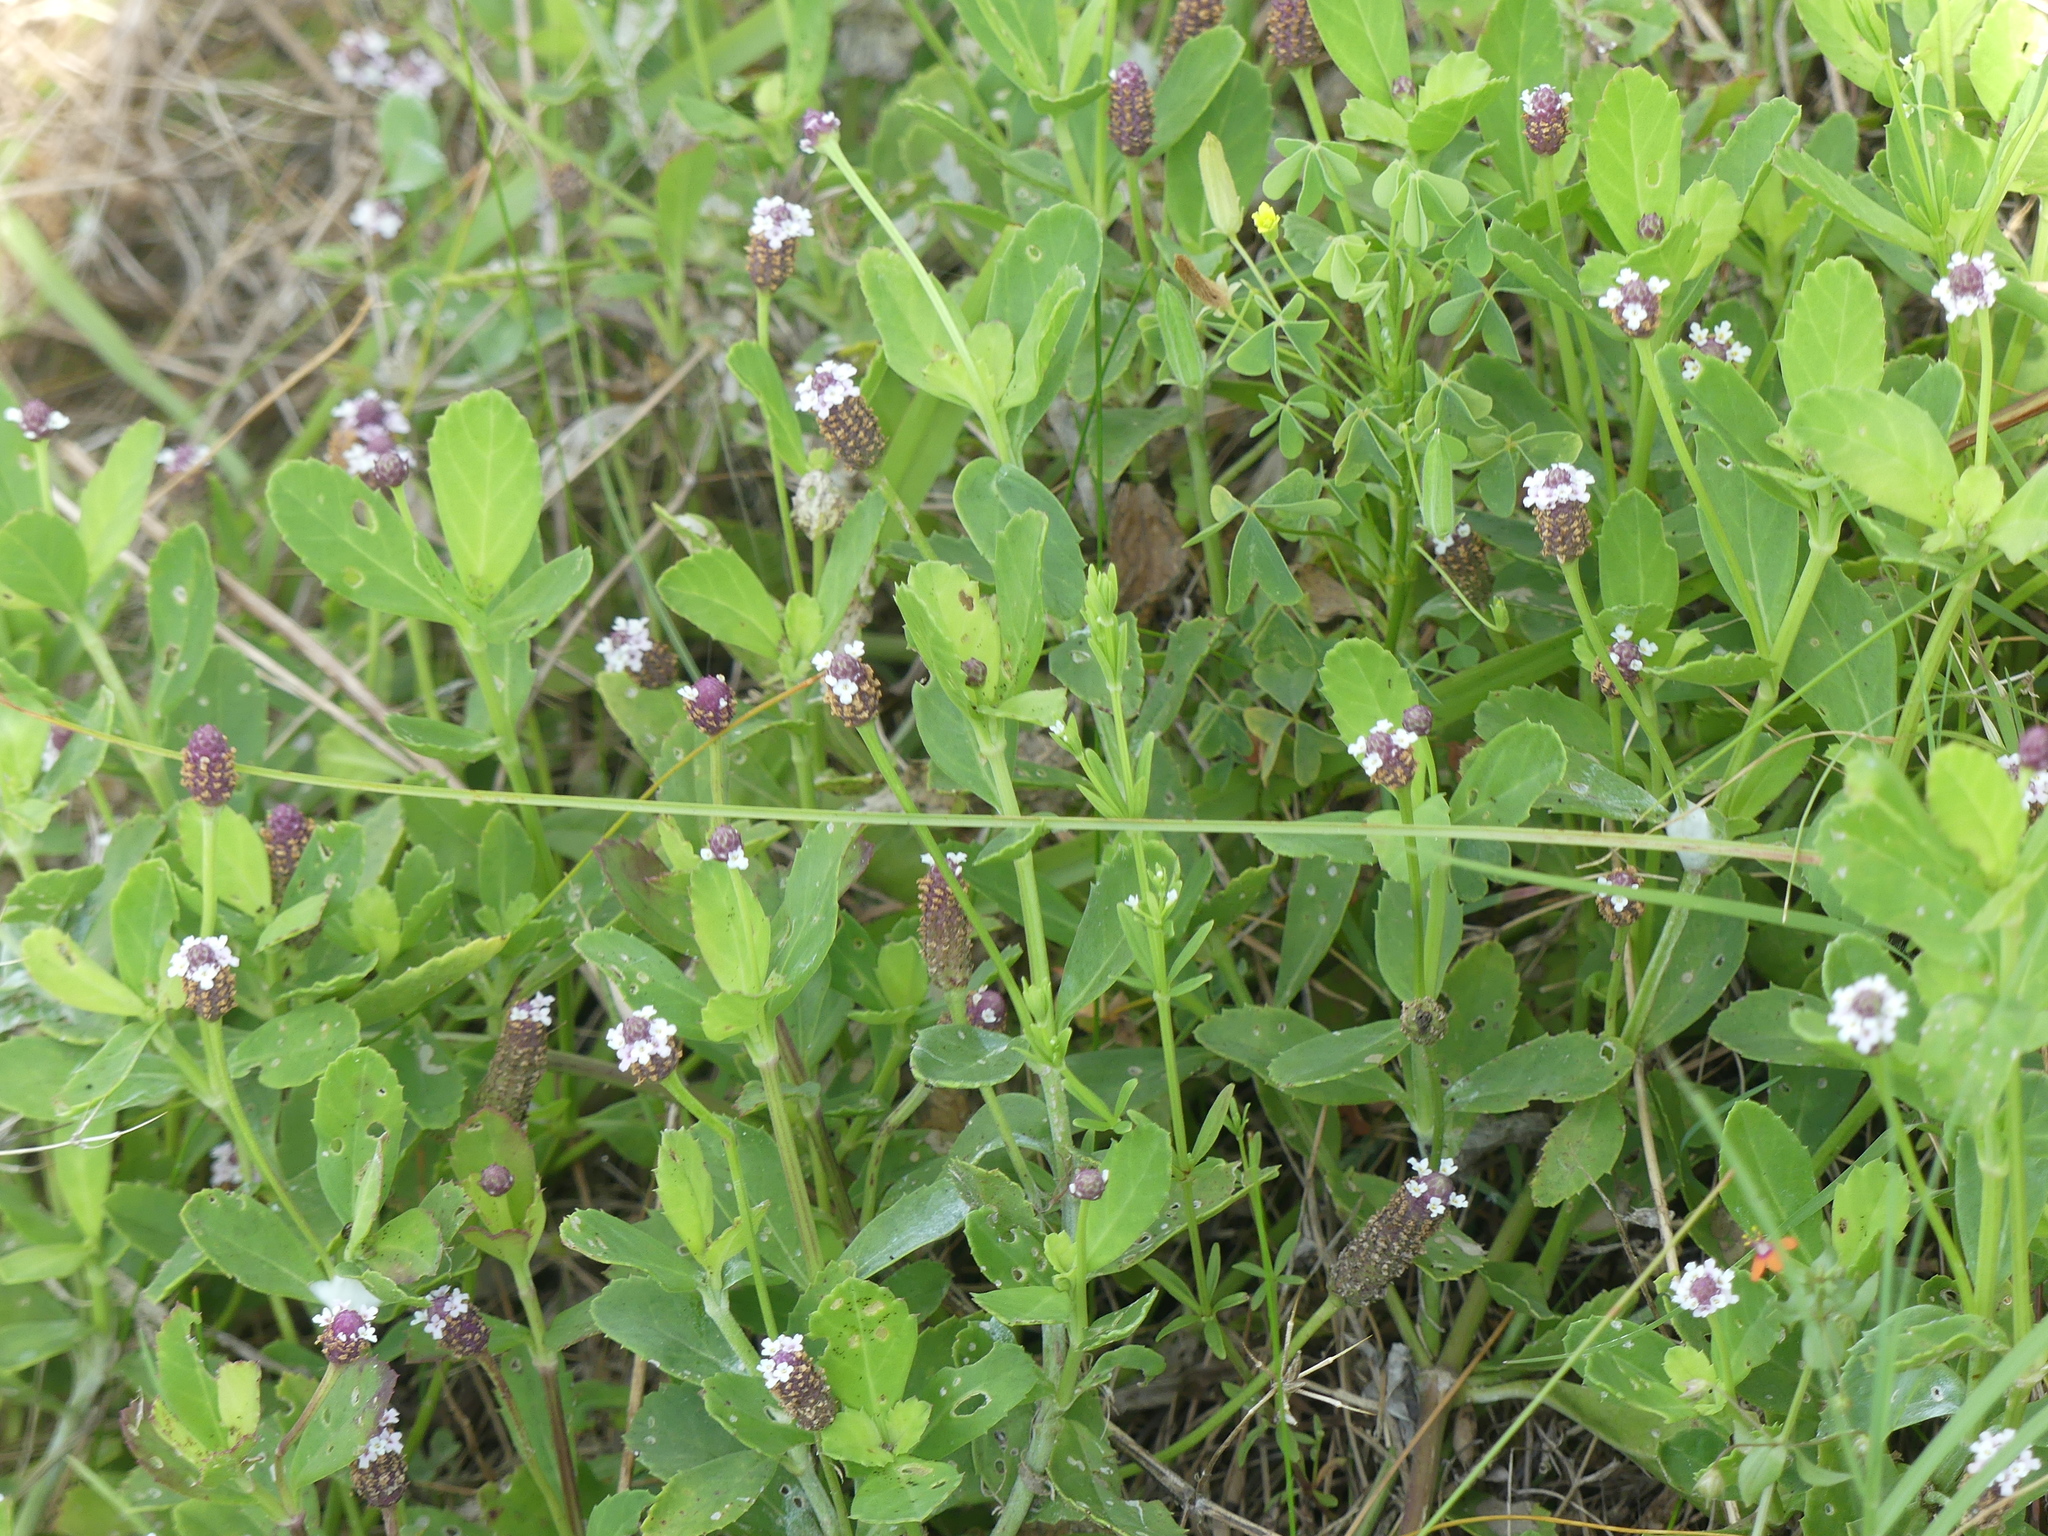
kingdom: Plantae
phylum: Tracheophyta
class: Magnoliopsida
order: Lamiales
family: Verbenaceae
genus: Phyla
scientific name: Phyla nodiflora
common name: Frogfruit
